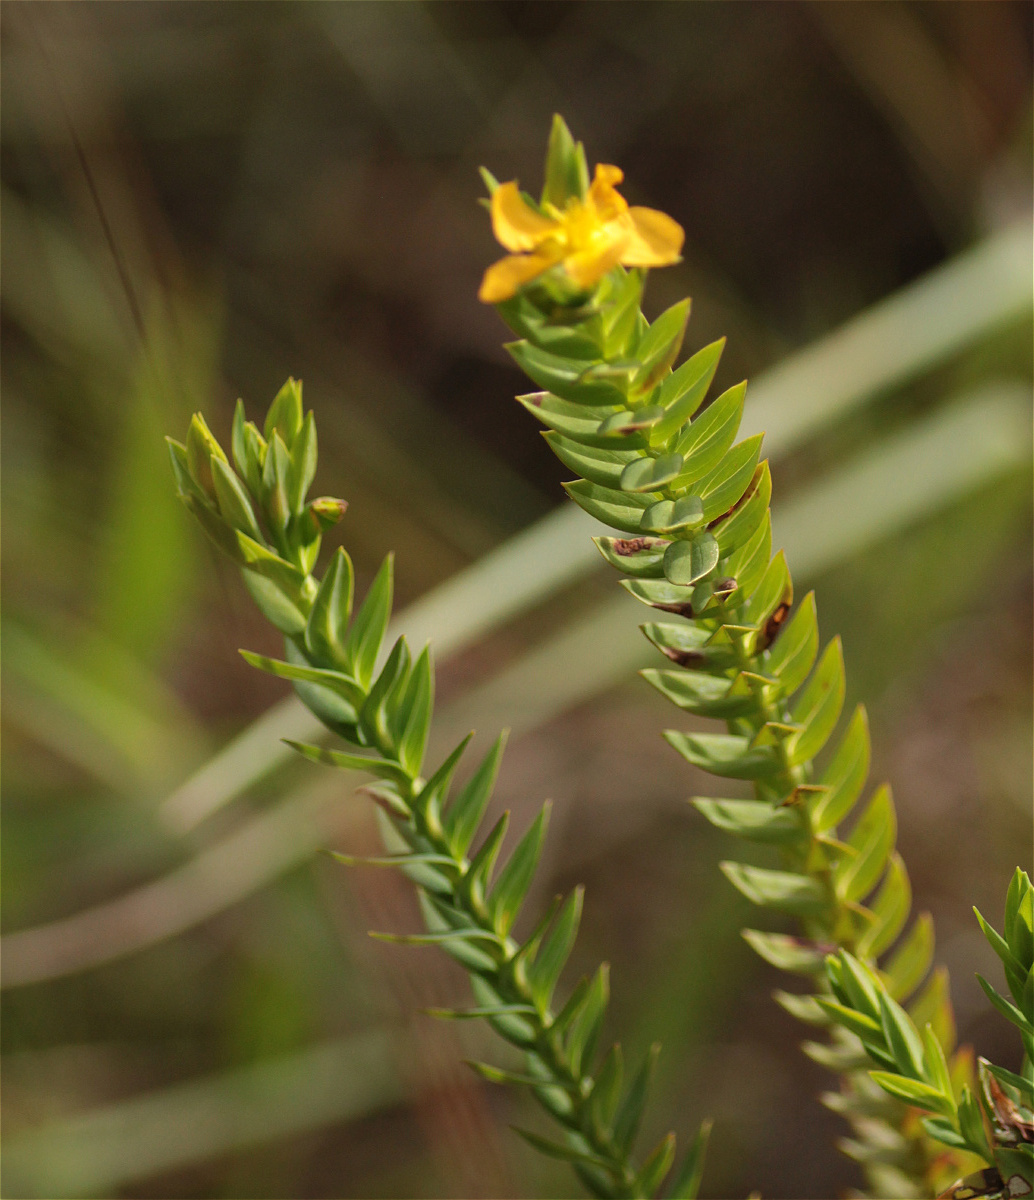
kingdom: Plantae
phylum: Tracheophyta
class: Magnoliopsida
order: Malpighiales
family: Hypericaceae
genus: Hypericum
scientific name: Hypericum mexicanum
